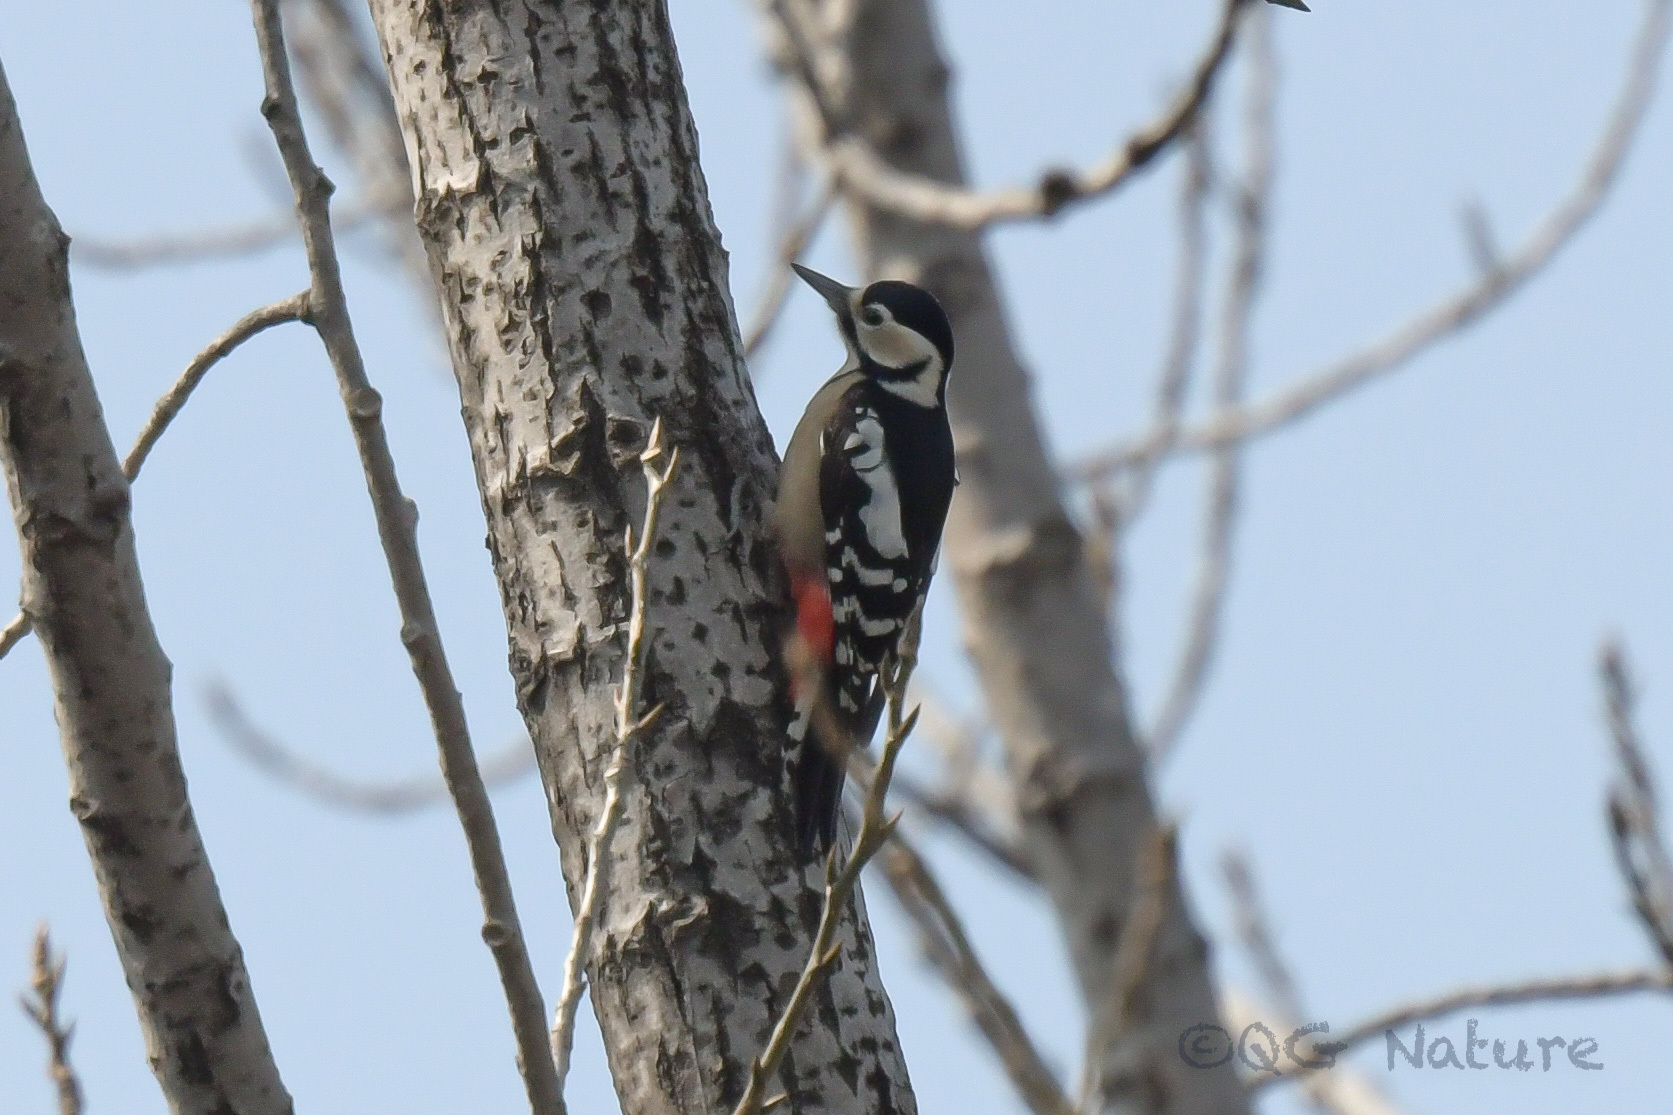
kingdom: Animalia
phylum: Chordata
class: Aves
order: Piciformes
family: Picidae
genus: Dendrocopos
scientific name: Dendrocopos major
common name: Great spotted woodpecker
